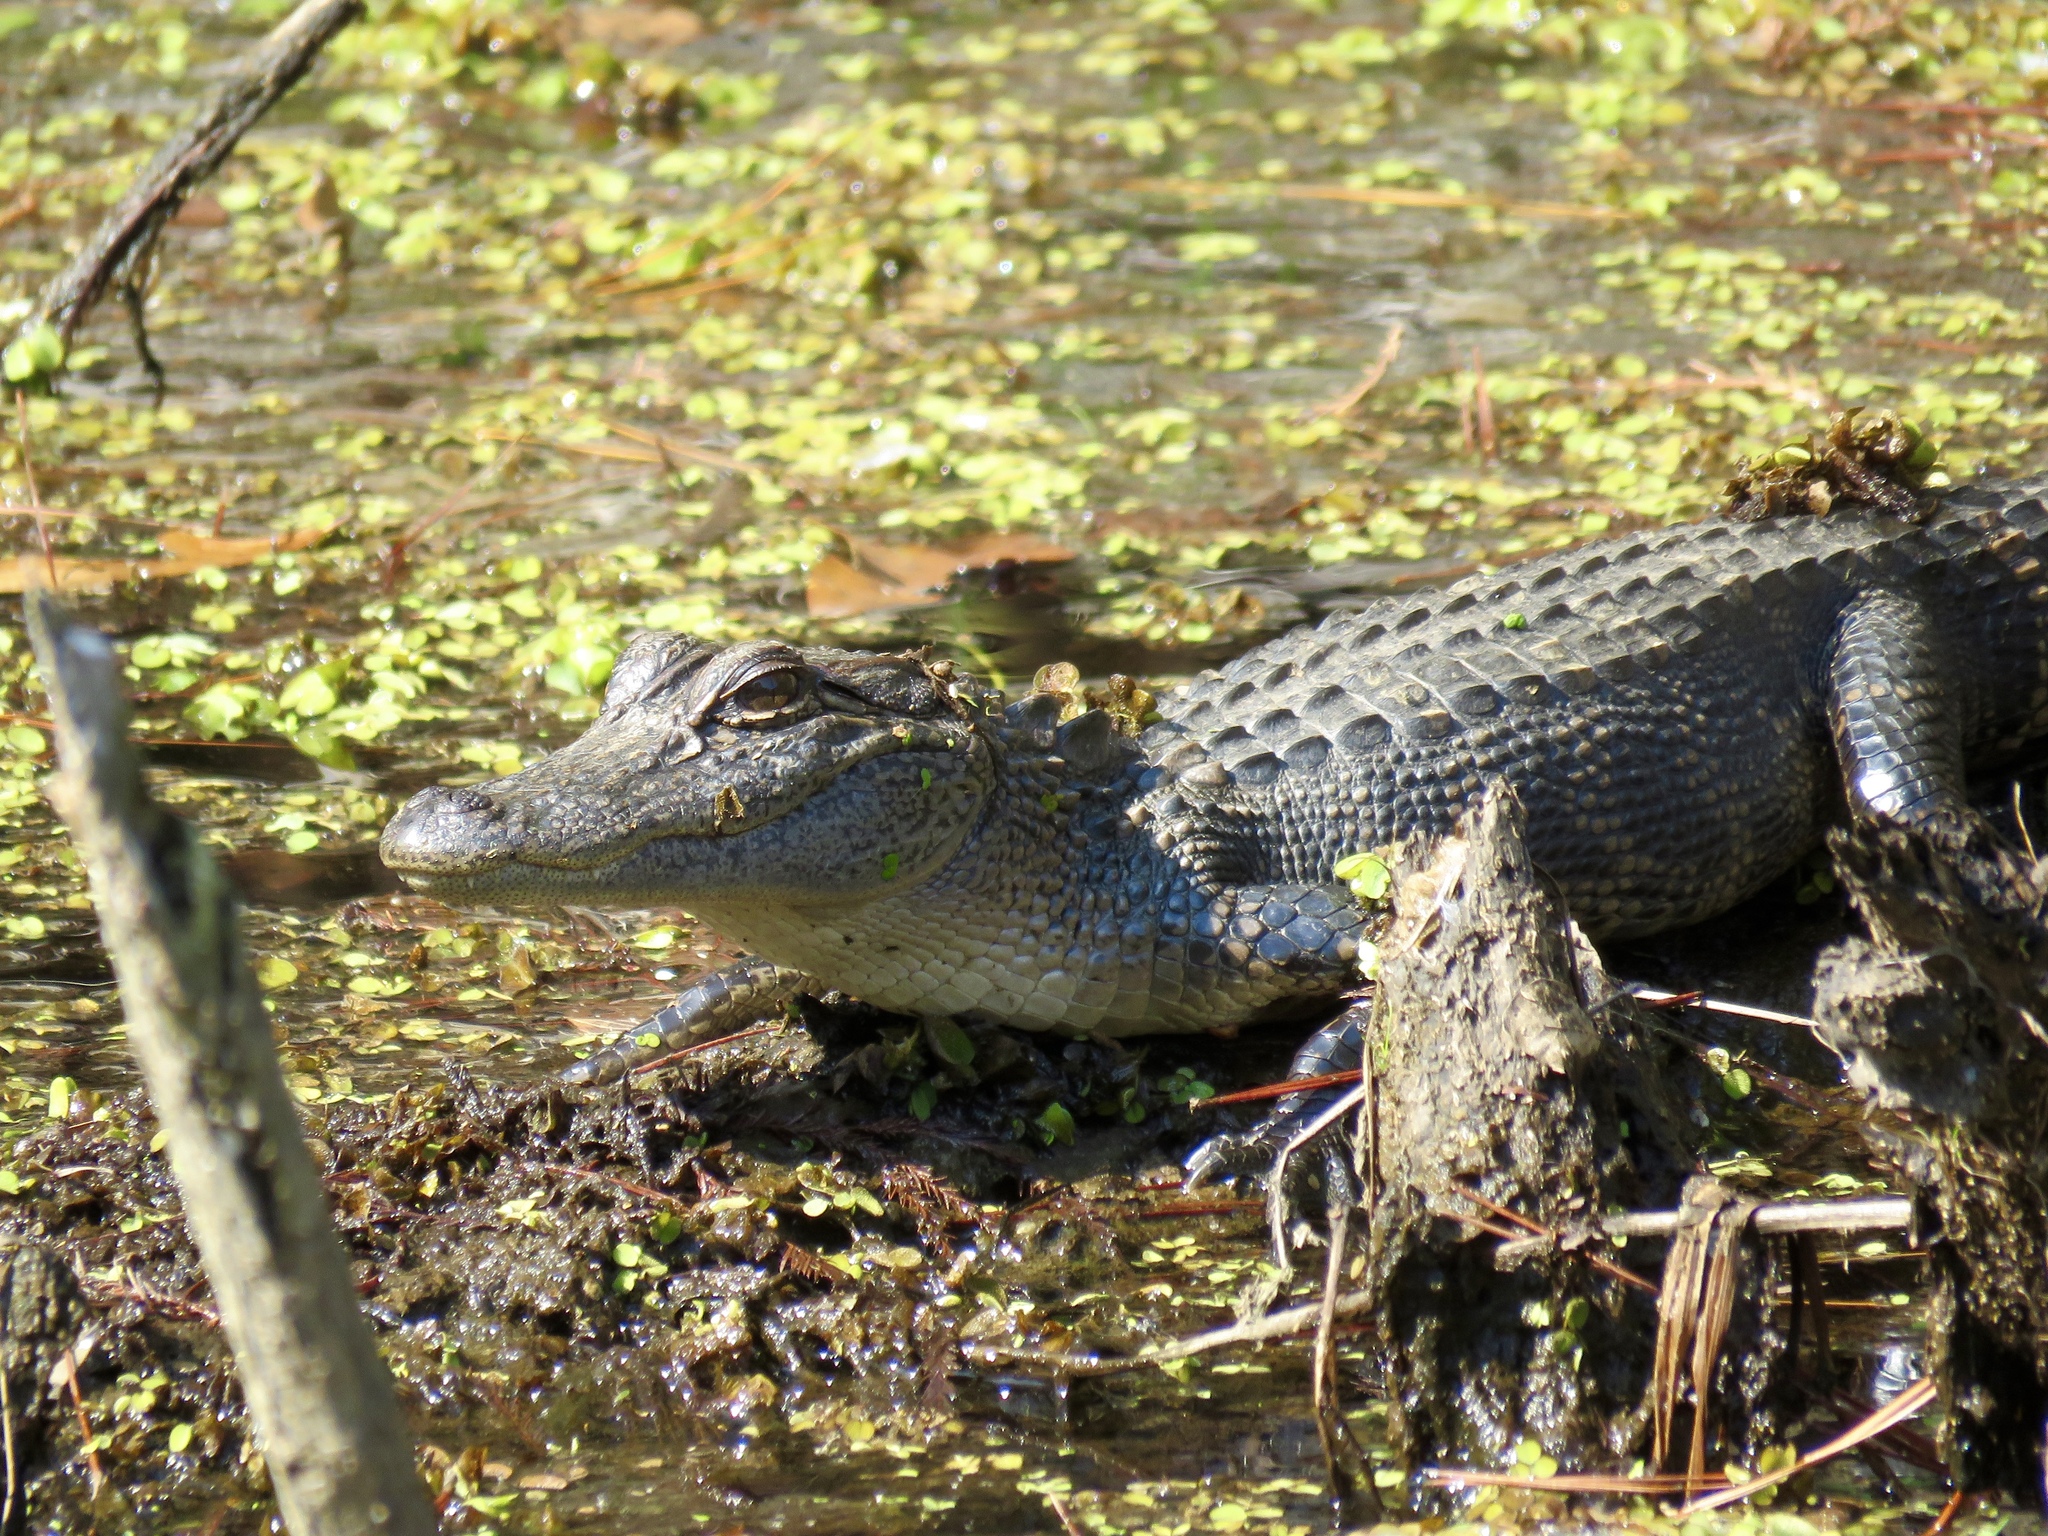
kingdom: Animalia
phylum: Chordata
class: Crocodylia
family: Alligatoridae
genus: Alligator
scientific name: Alligator mississippiensis
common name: American alligator
